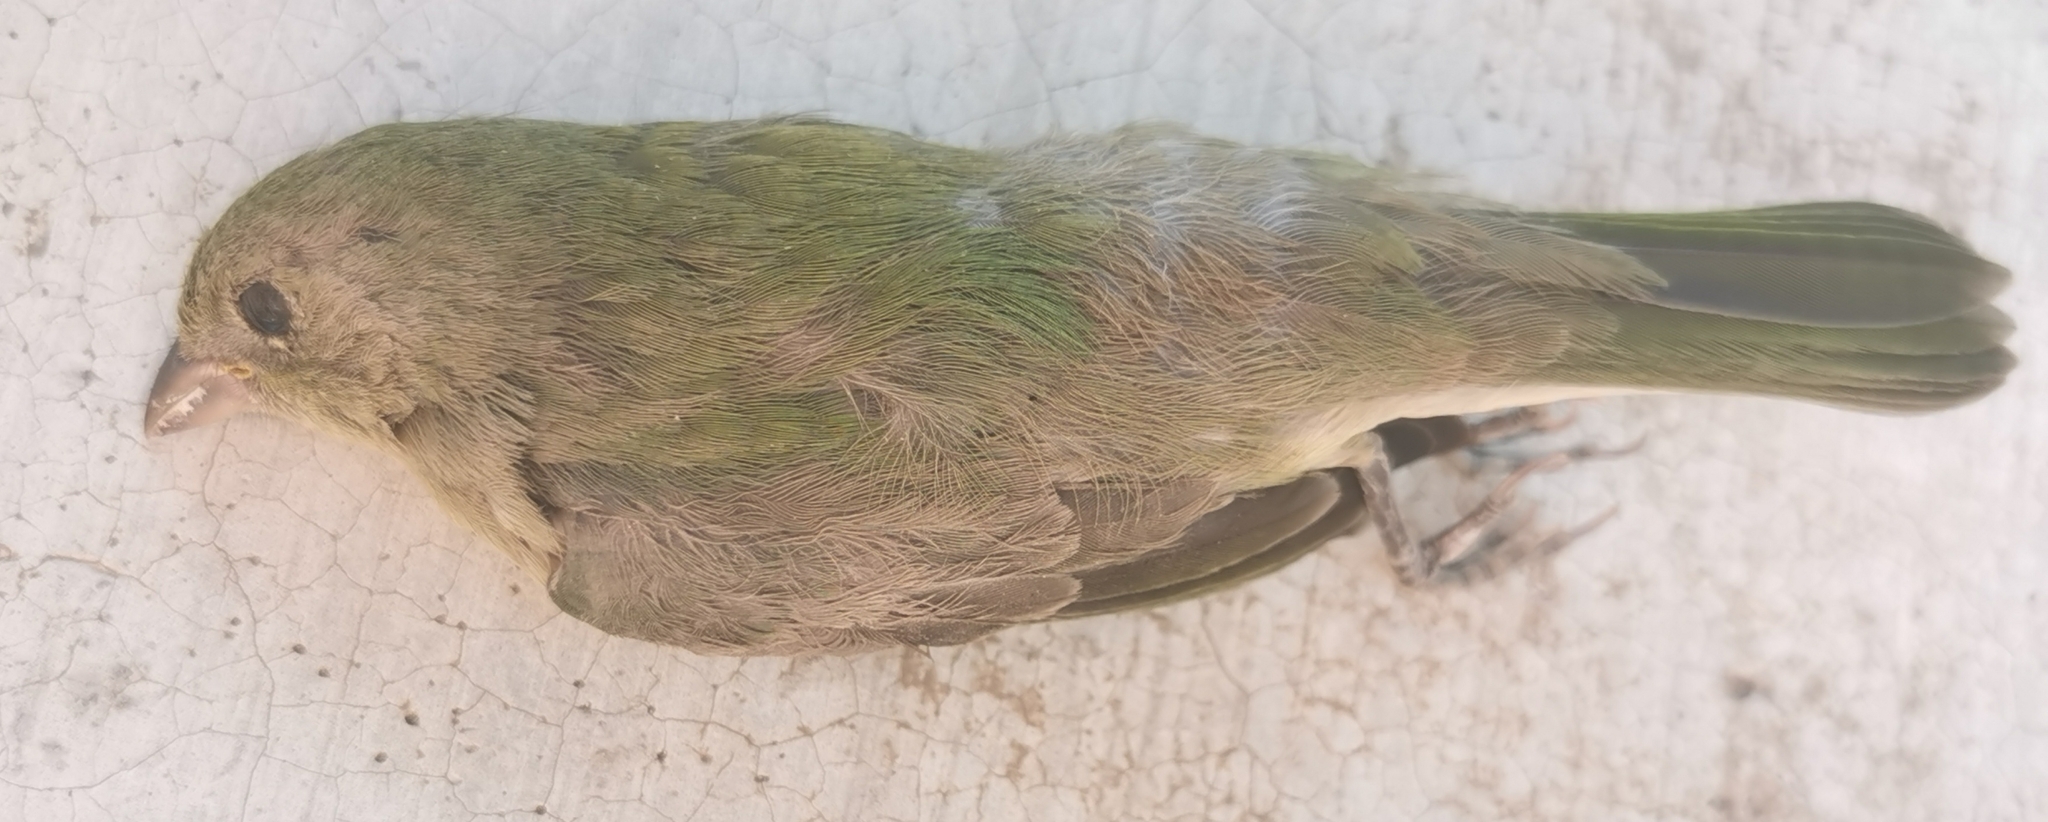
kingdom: Animalia
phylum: Chordata
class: Aves
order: Passeriformes
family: Cardinalidae
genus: Passerina
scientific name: Passerina ciris
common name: Painted bunting
